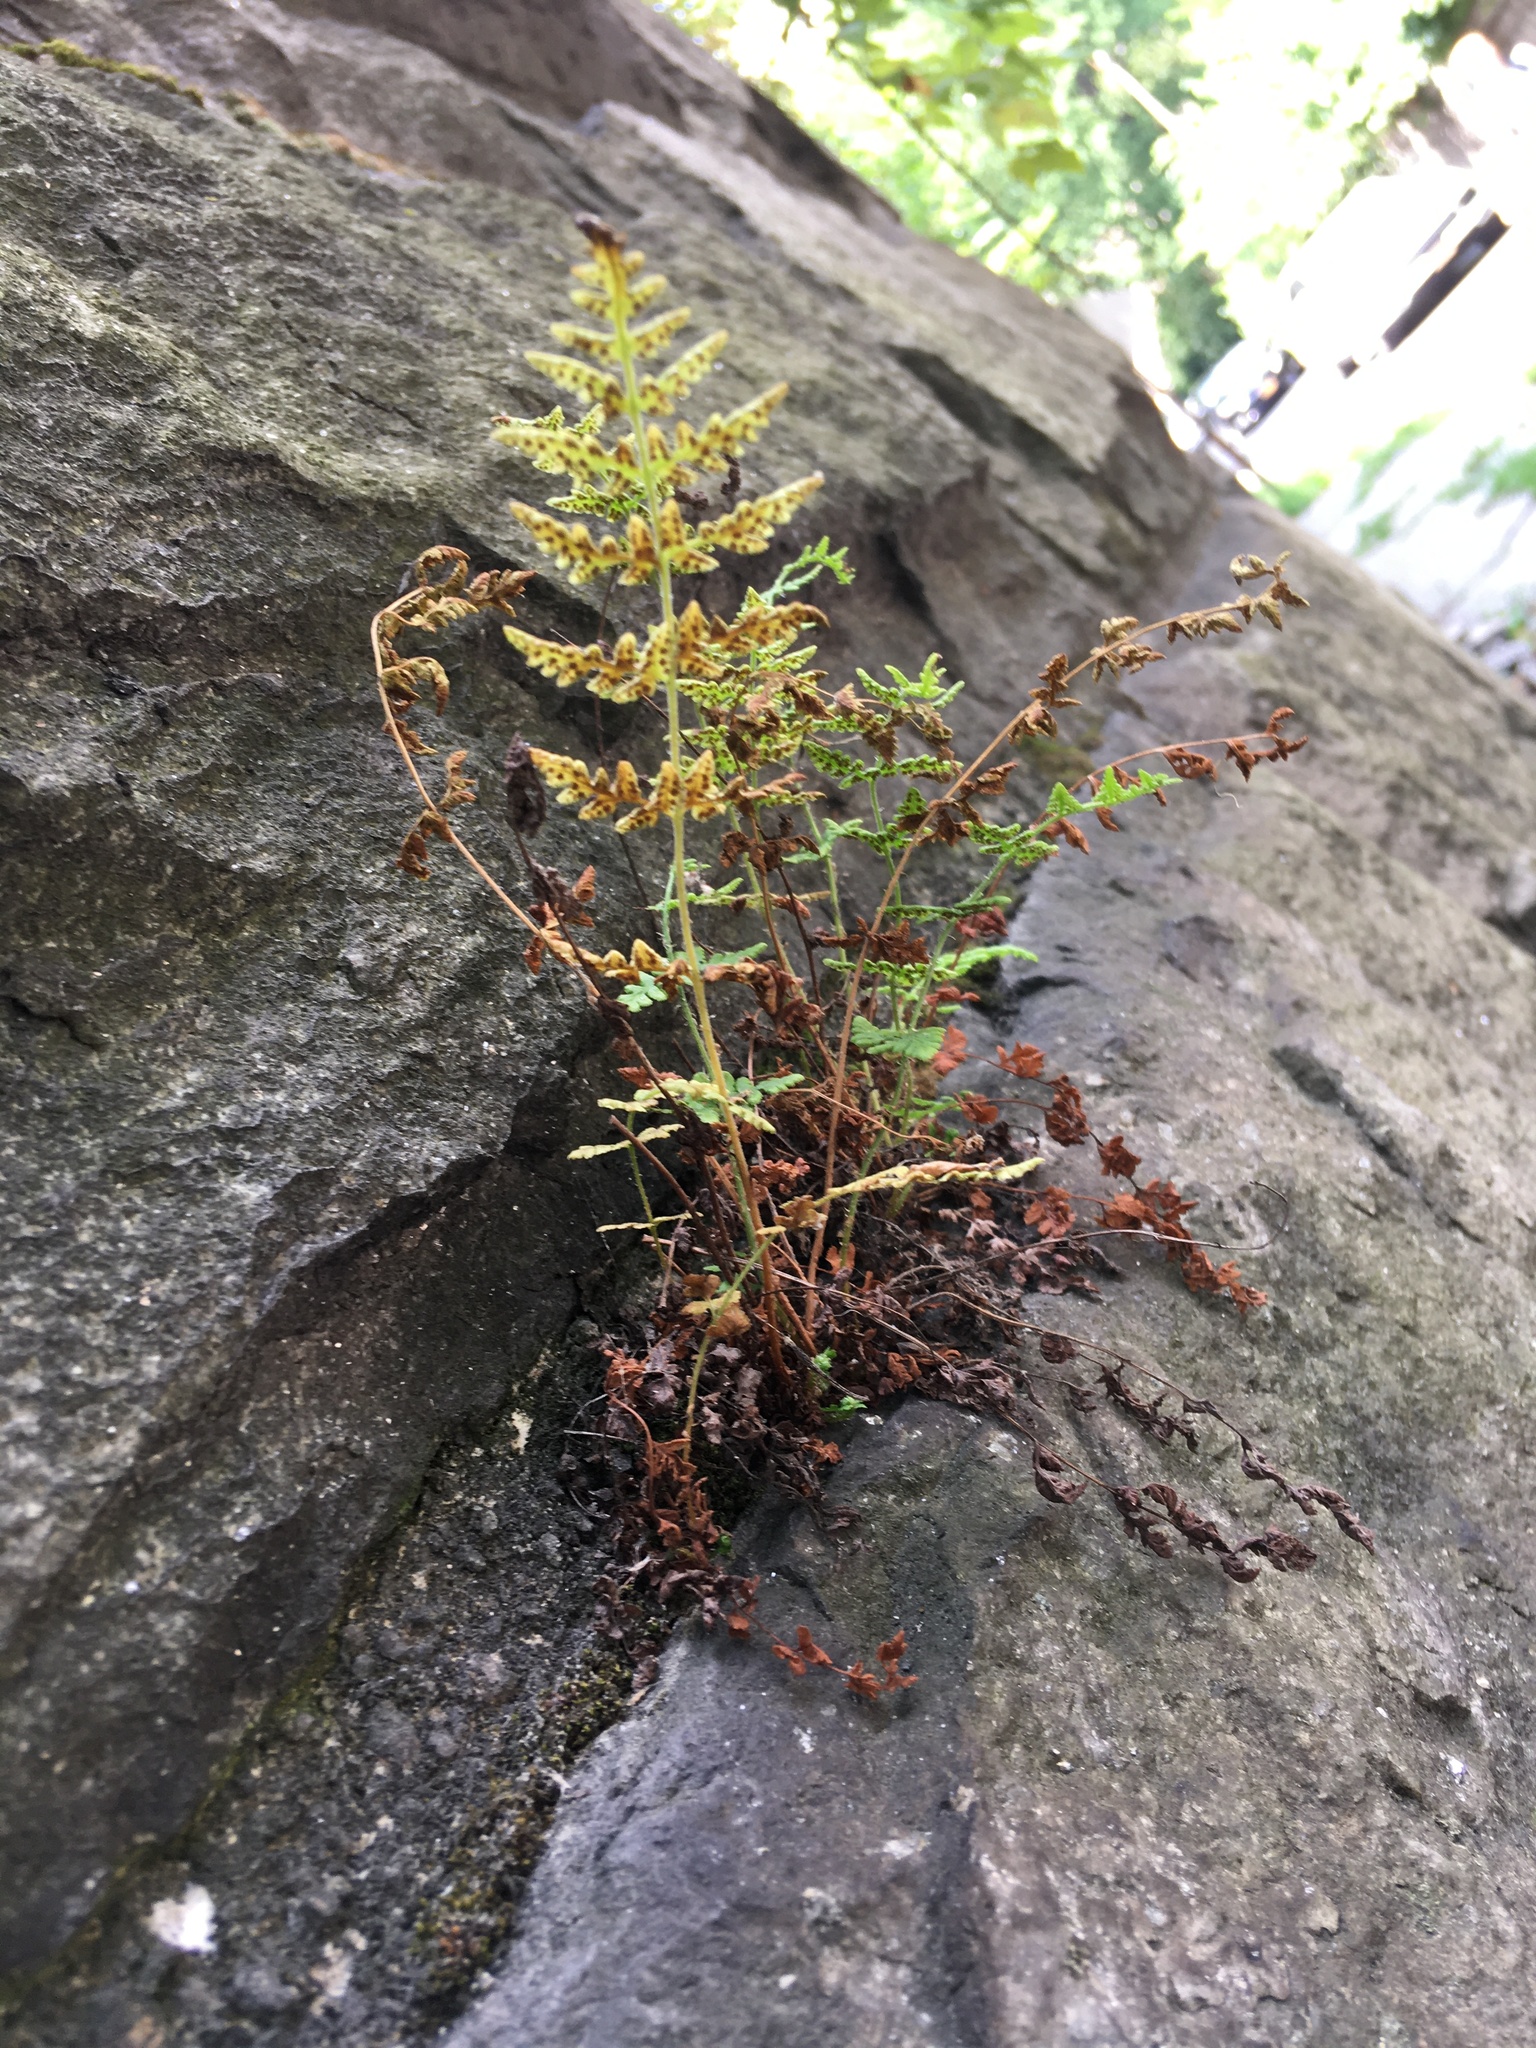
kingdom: Plantae
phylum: Tracheophyta
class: Polypodiopsida
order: Polypodiales
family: Woodsiaceae
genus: Physematium
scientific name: Physematium obtusum
